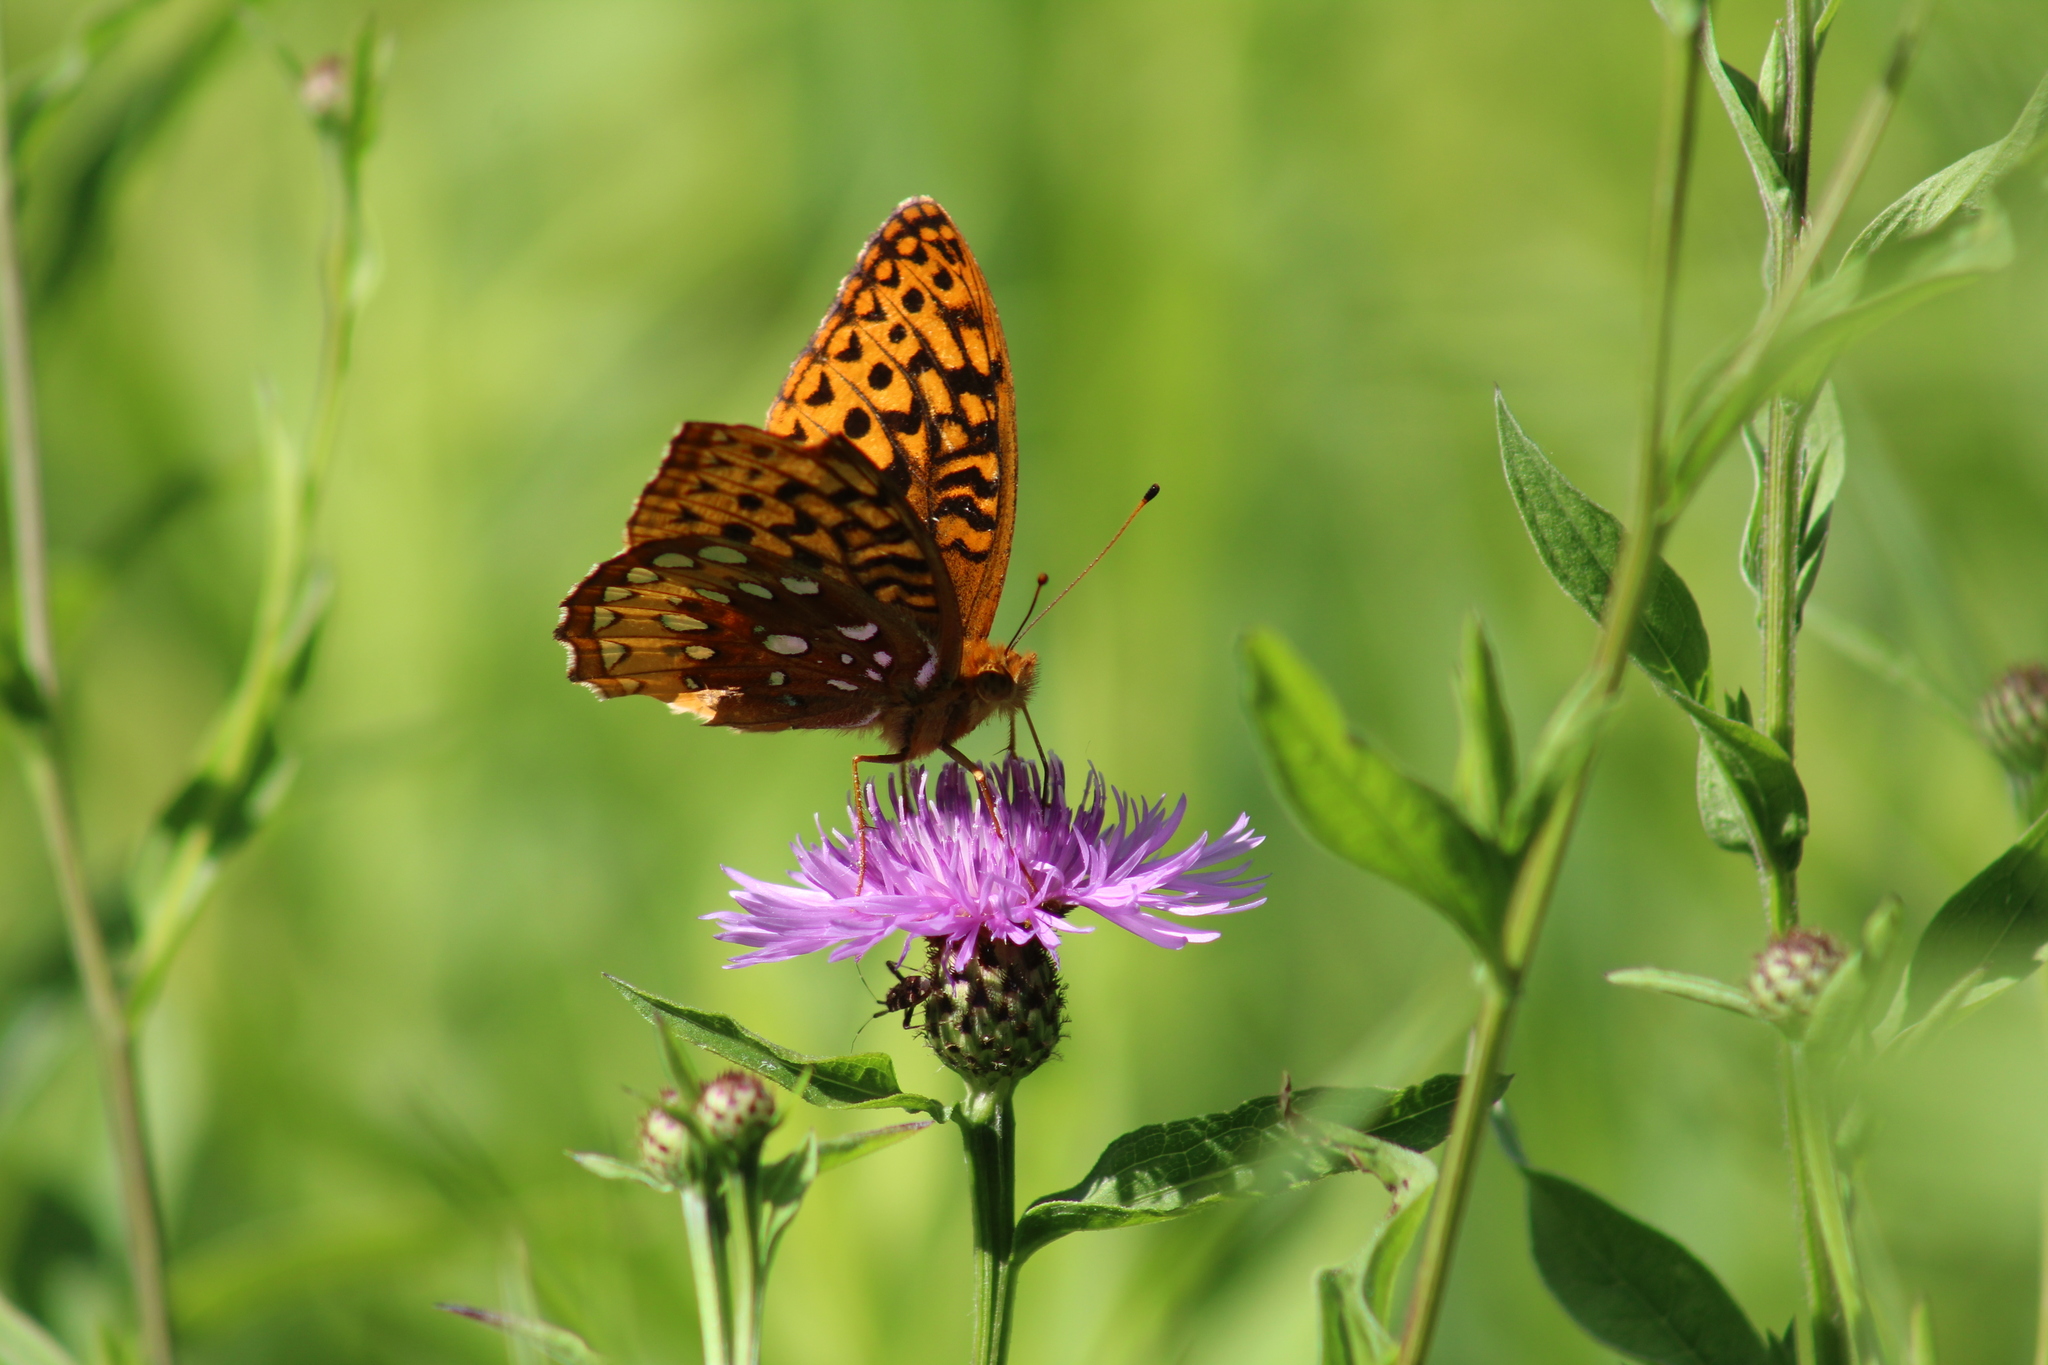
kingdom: Animalia
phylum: Arthropoda
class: Insecta
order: Lepidoptera
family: Nymphalidae
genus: Speyeria
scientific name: Speyeria cybele
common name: Great spangled fritillary
